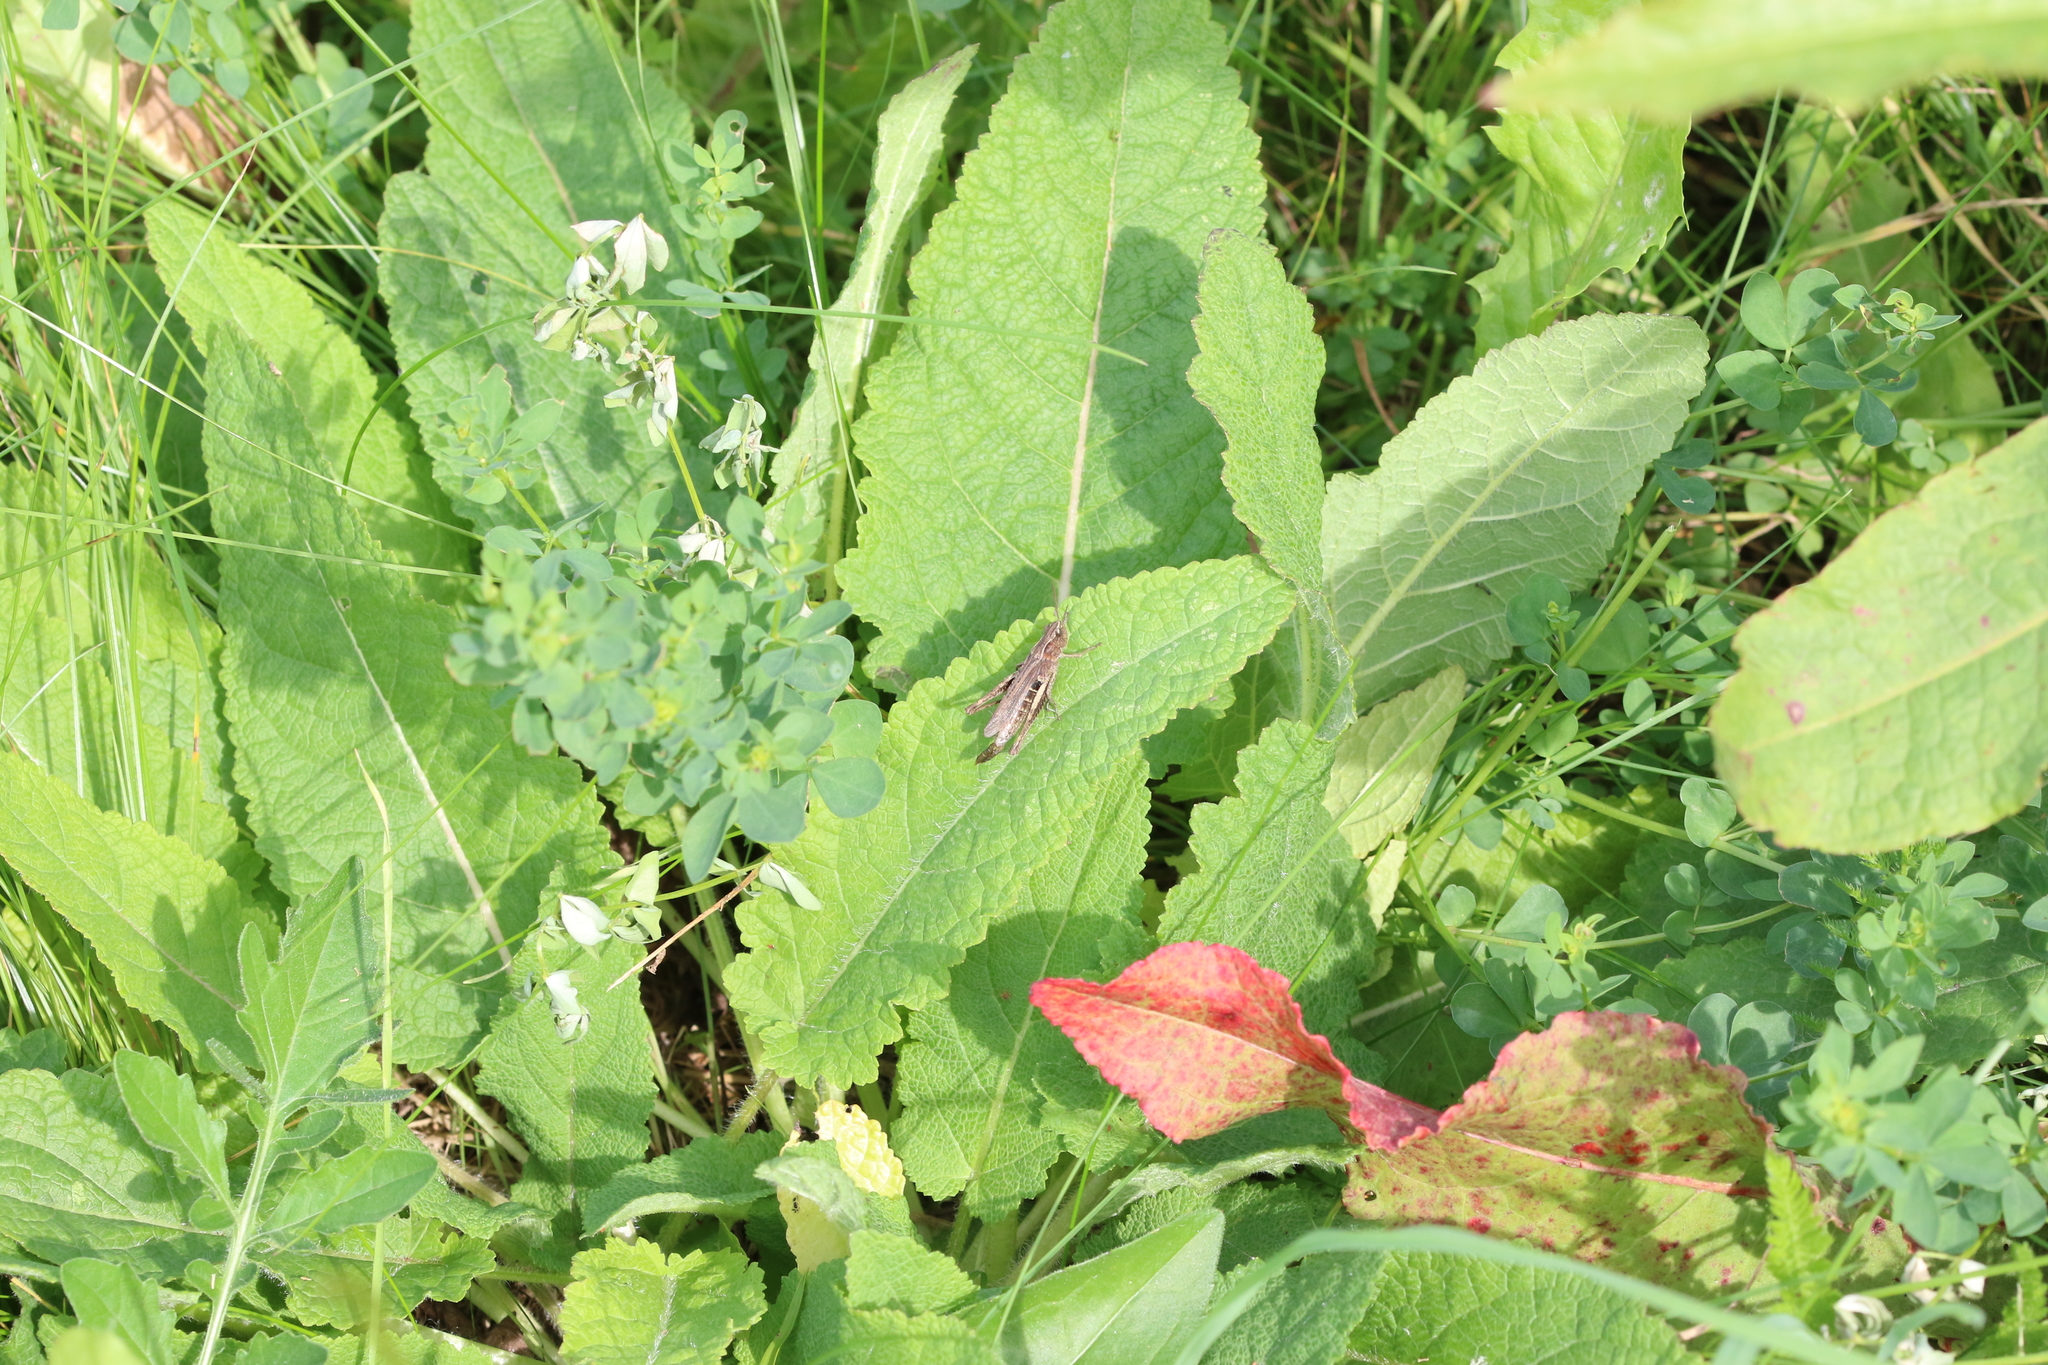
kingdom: Animalia
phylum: Arthropoda
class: Insecta
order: Orthoptera
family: Acrididae
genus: Chorthippus
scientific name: Chorthippus dorsatus
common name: Steppe grasshopper
